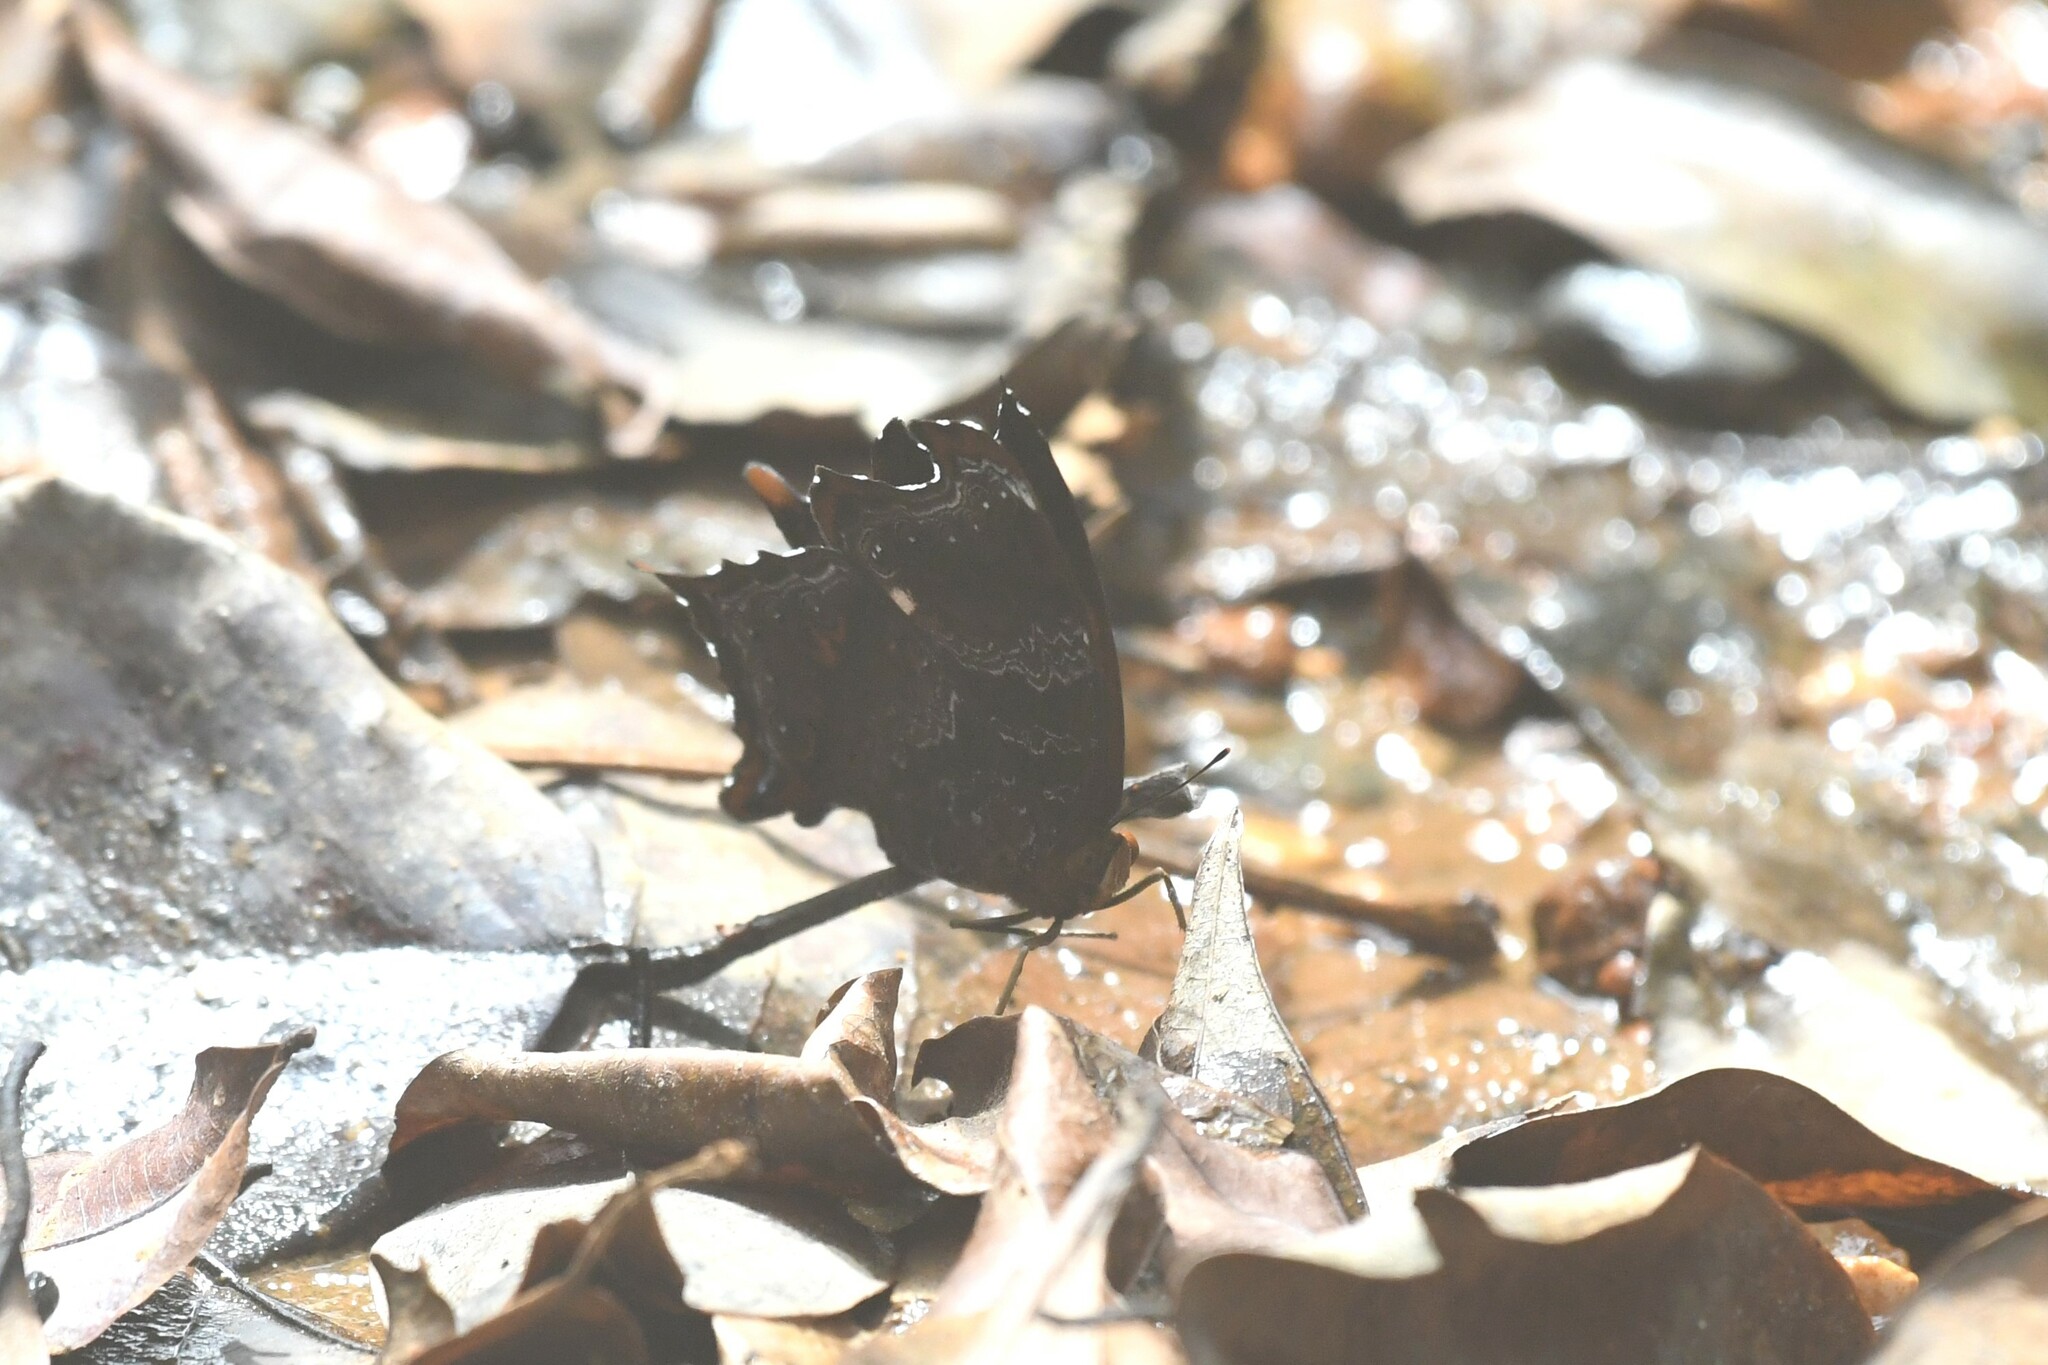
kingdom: Animalia
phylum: Arthropoda
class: Insecta
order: Lepidoptera
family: Nymphalidae
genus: Rhinopalpa
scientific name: Rhinopalpa polynice
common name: Wizard
